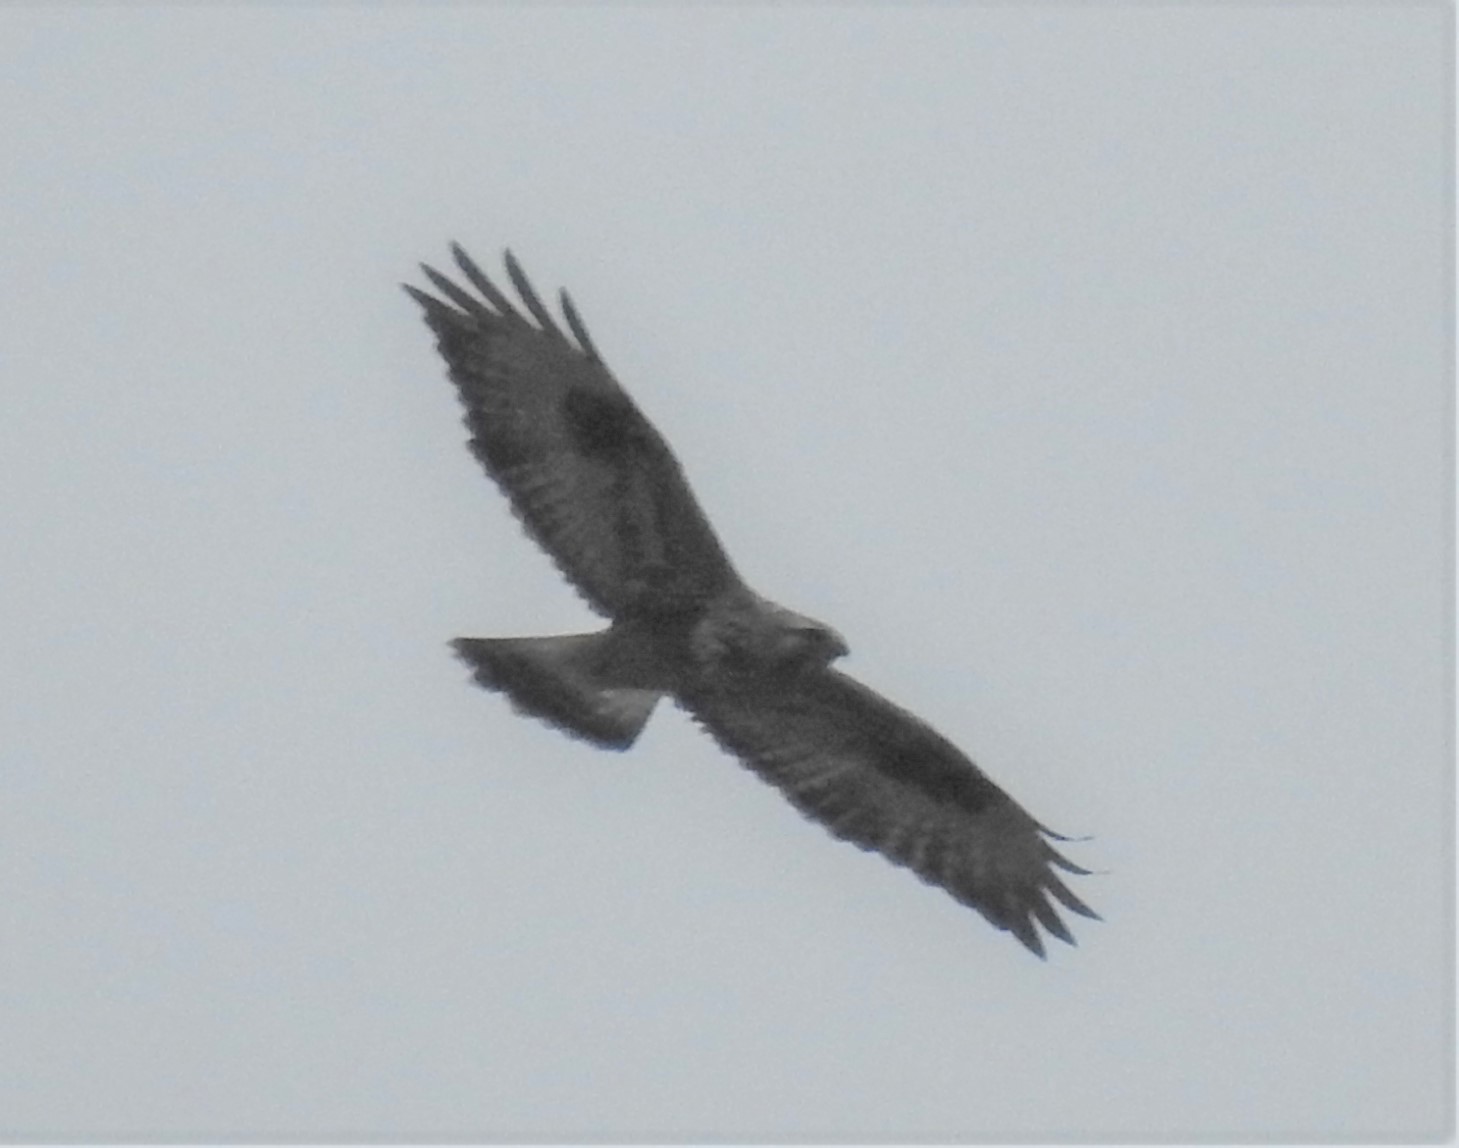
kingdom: Animalia
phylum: Chordata
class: Aves
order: Accipitriformes
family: Accipitridae
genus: Buteo
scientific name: Buteo lagopus
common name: Rough-legged buzzard
